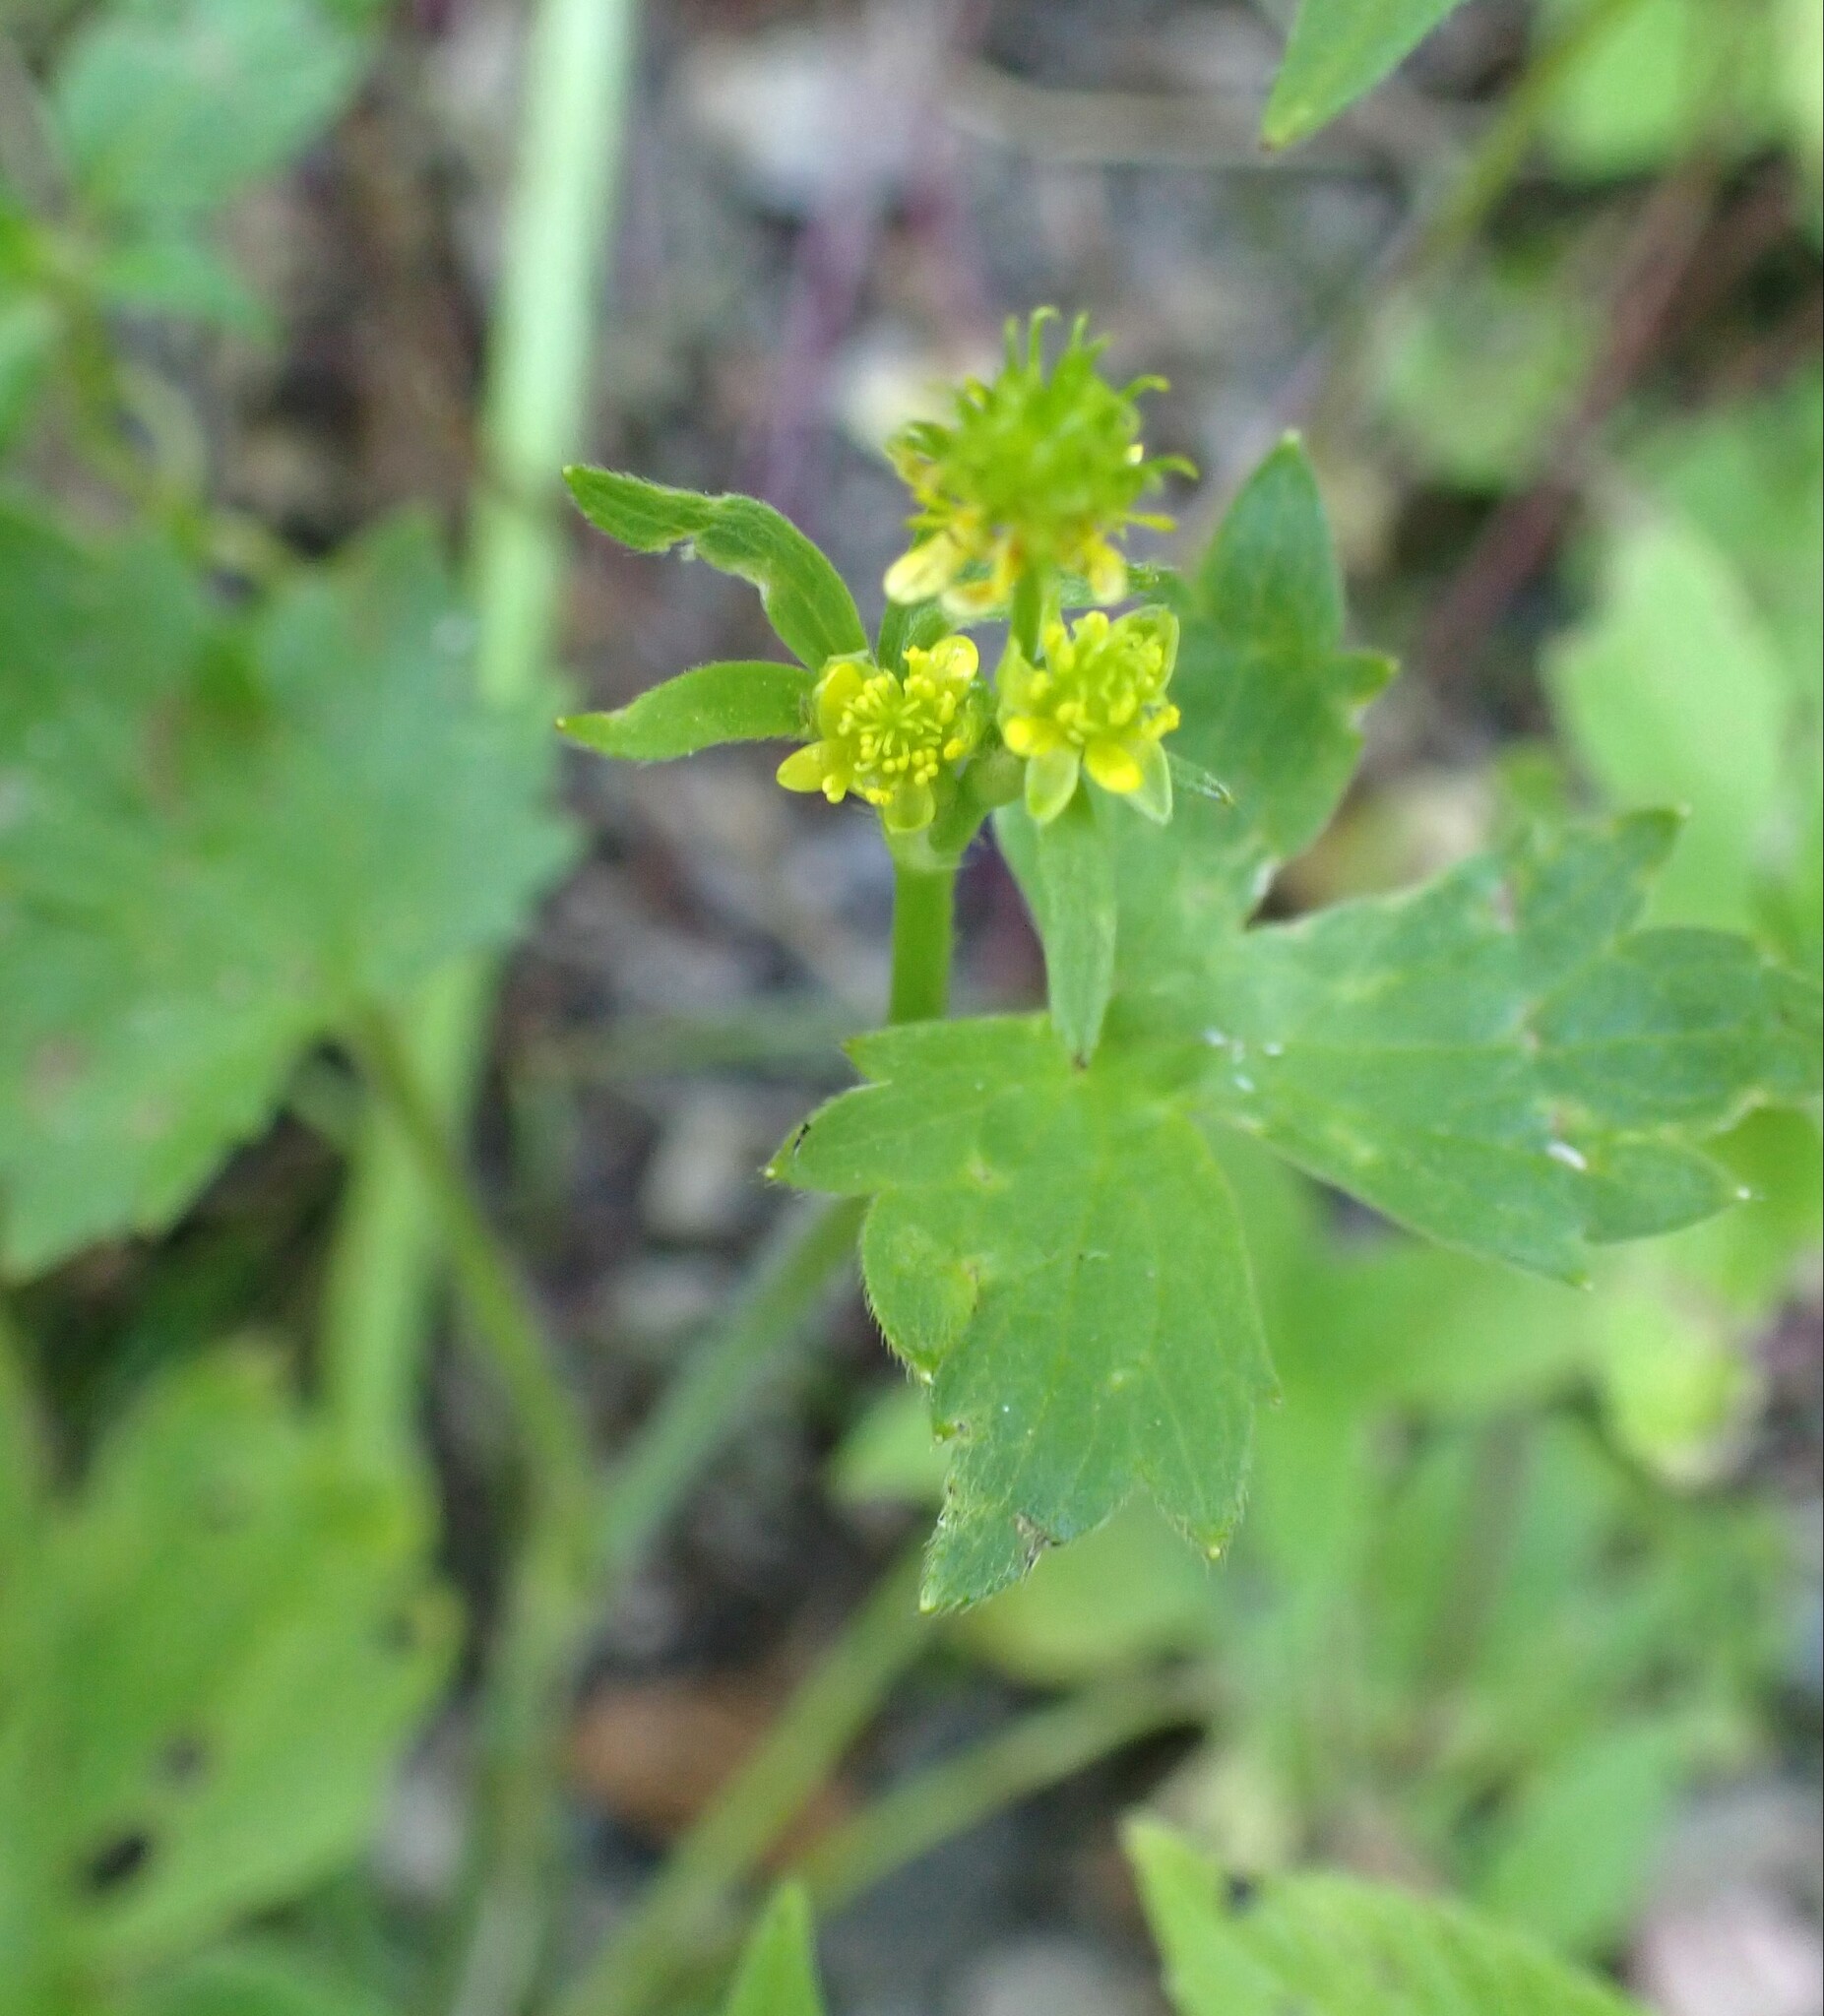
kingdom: Plantae
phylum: Tracheophyta
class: Magnoliopsida
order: Ranunculales
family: Ranunculaceae
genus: Ranunculus
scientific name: Ranunculus uncinatus
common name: Little buttercup
